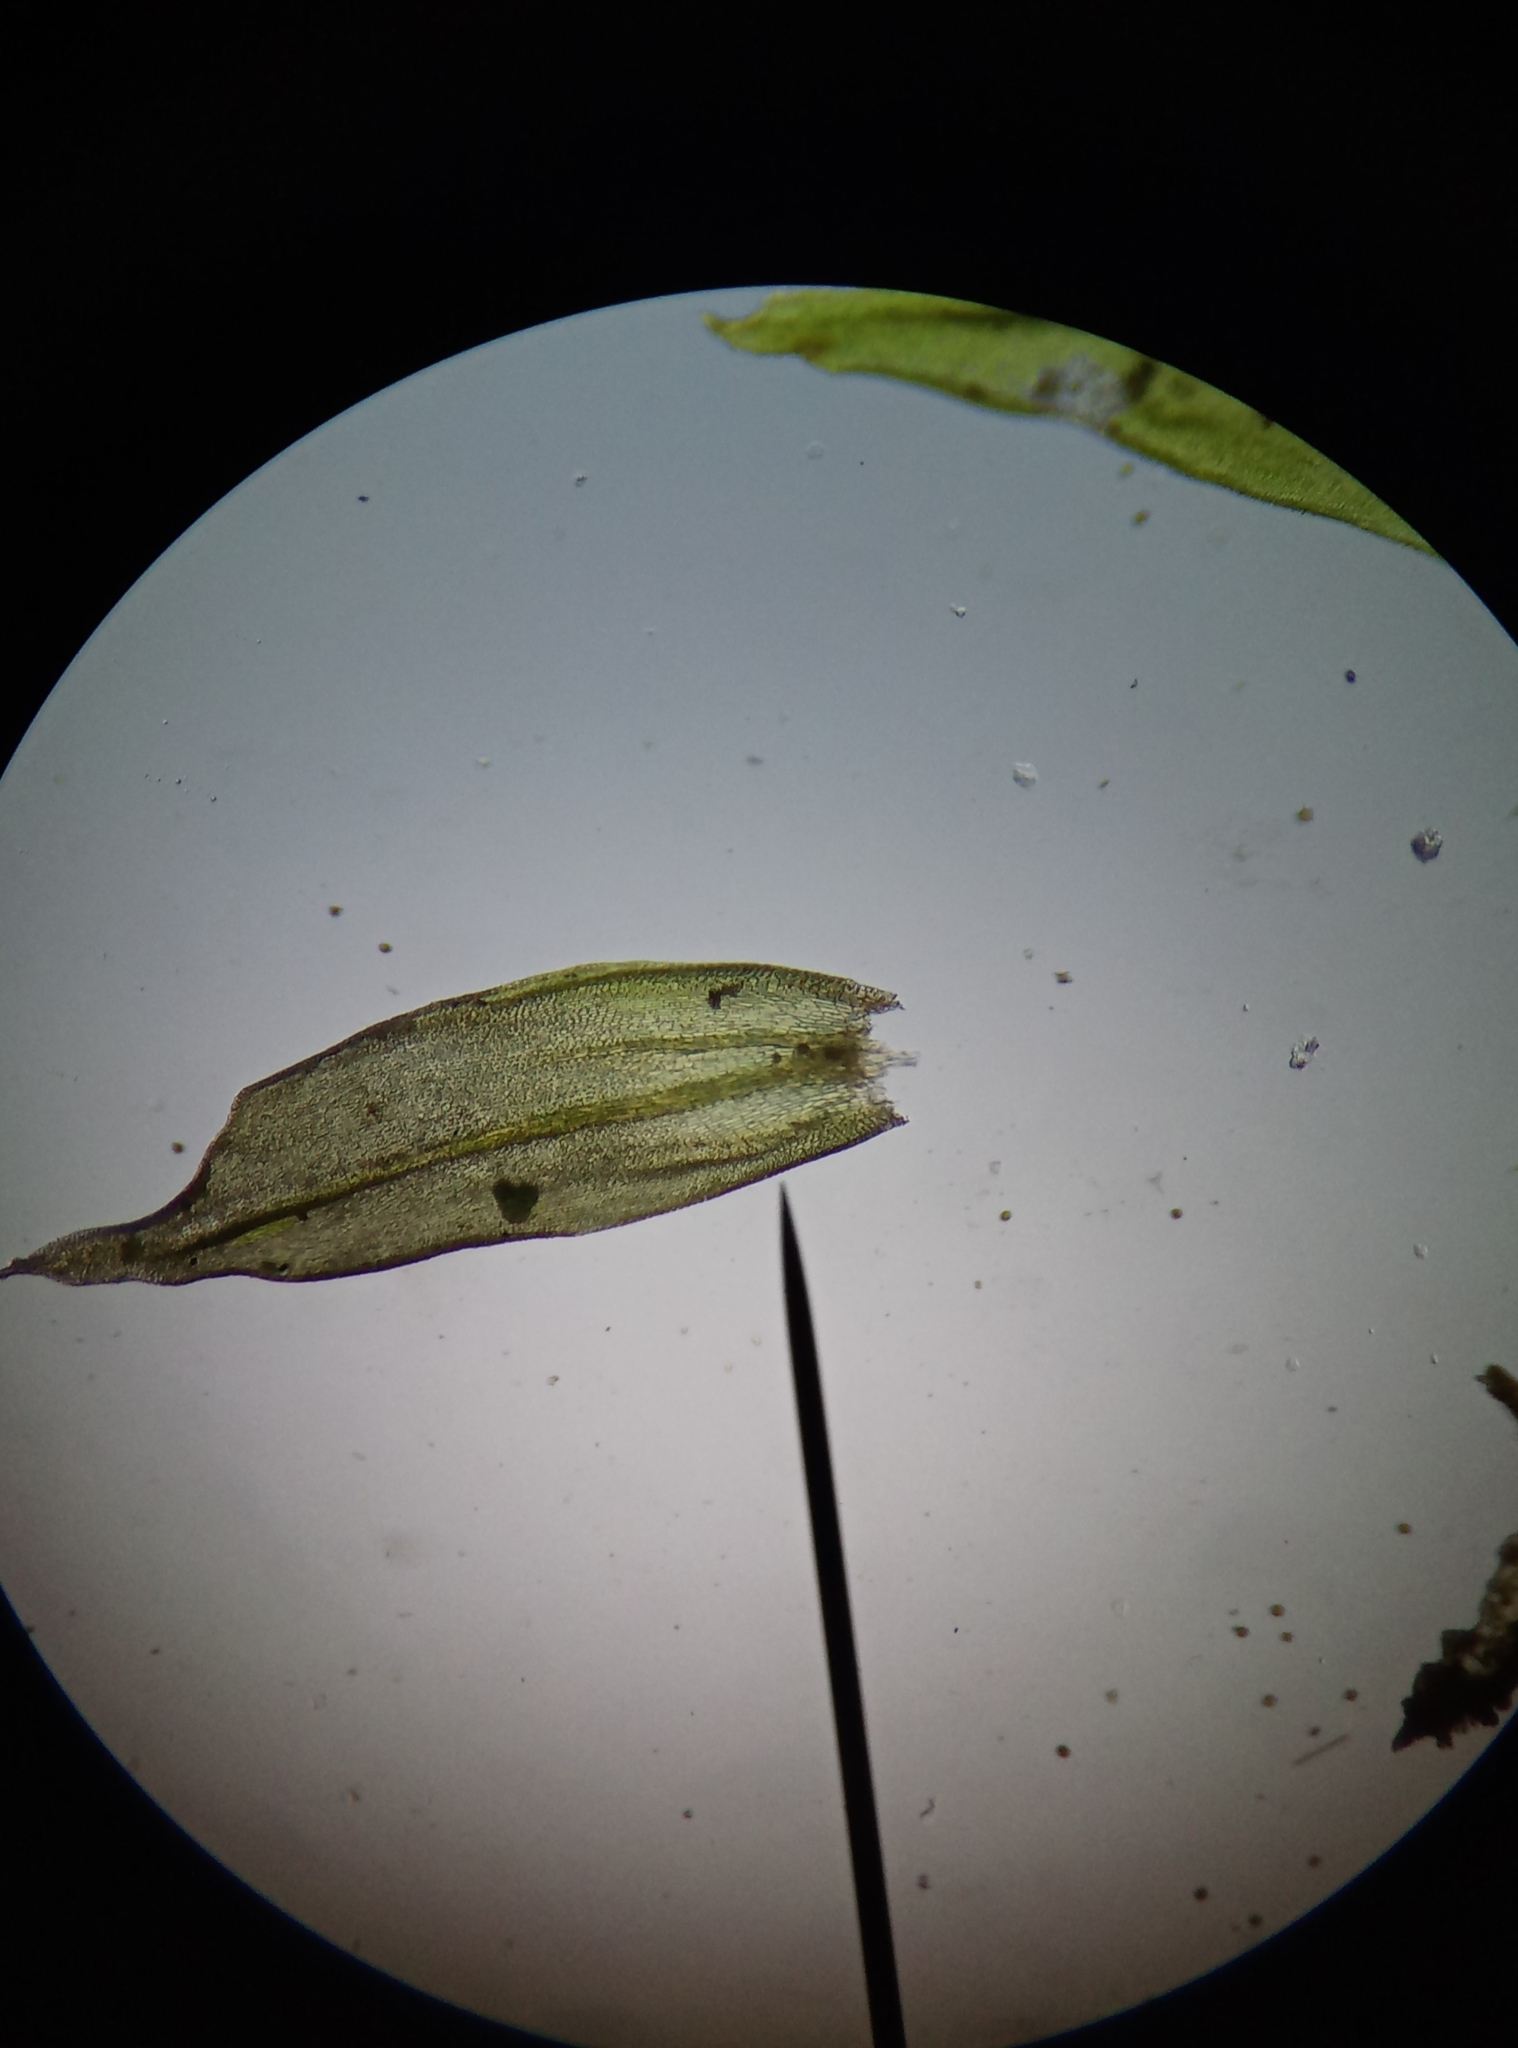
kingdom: Plantae
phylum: Bryophyta
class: Bryopsida
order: Orthotrichales
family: Orthotrichaceae
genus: Lewinskya
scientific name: Lewinskya striata
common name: Shaw's bristle-moss
